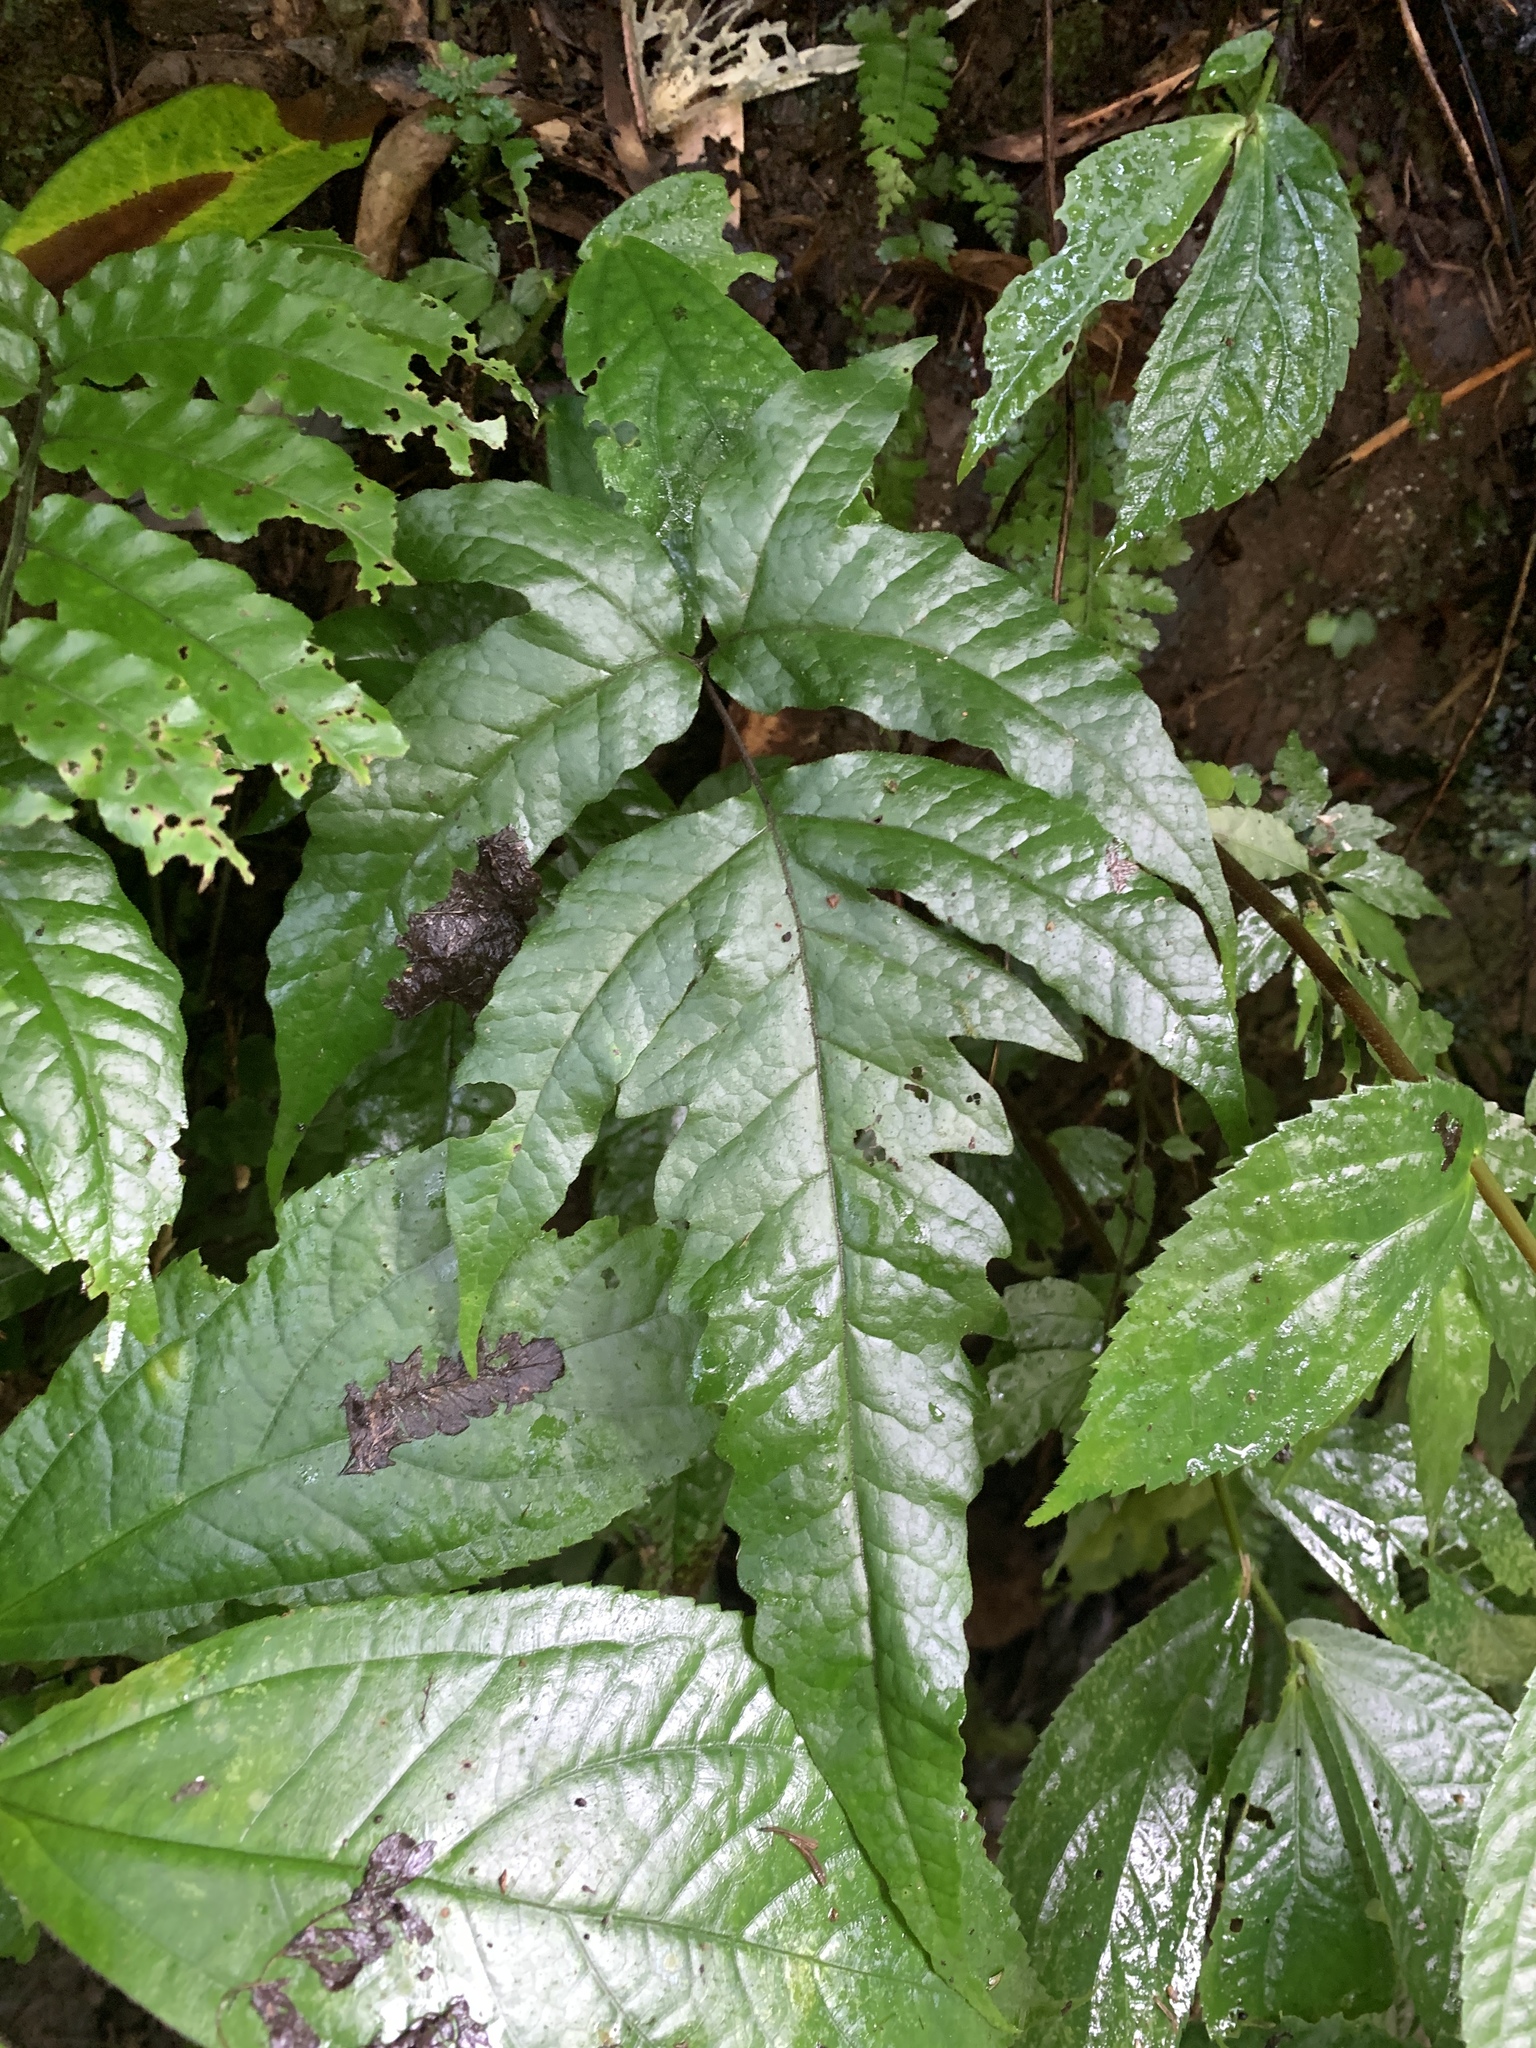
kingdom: Plantae
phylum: Tracheophyta
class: Polypodiopsida
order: Polypodiales
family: Tectariaceae
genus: Tectaria
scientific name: Tectaria phaeocaulis
